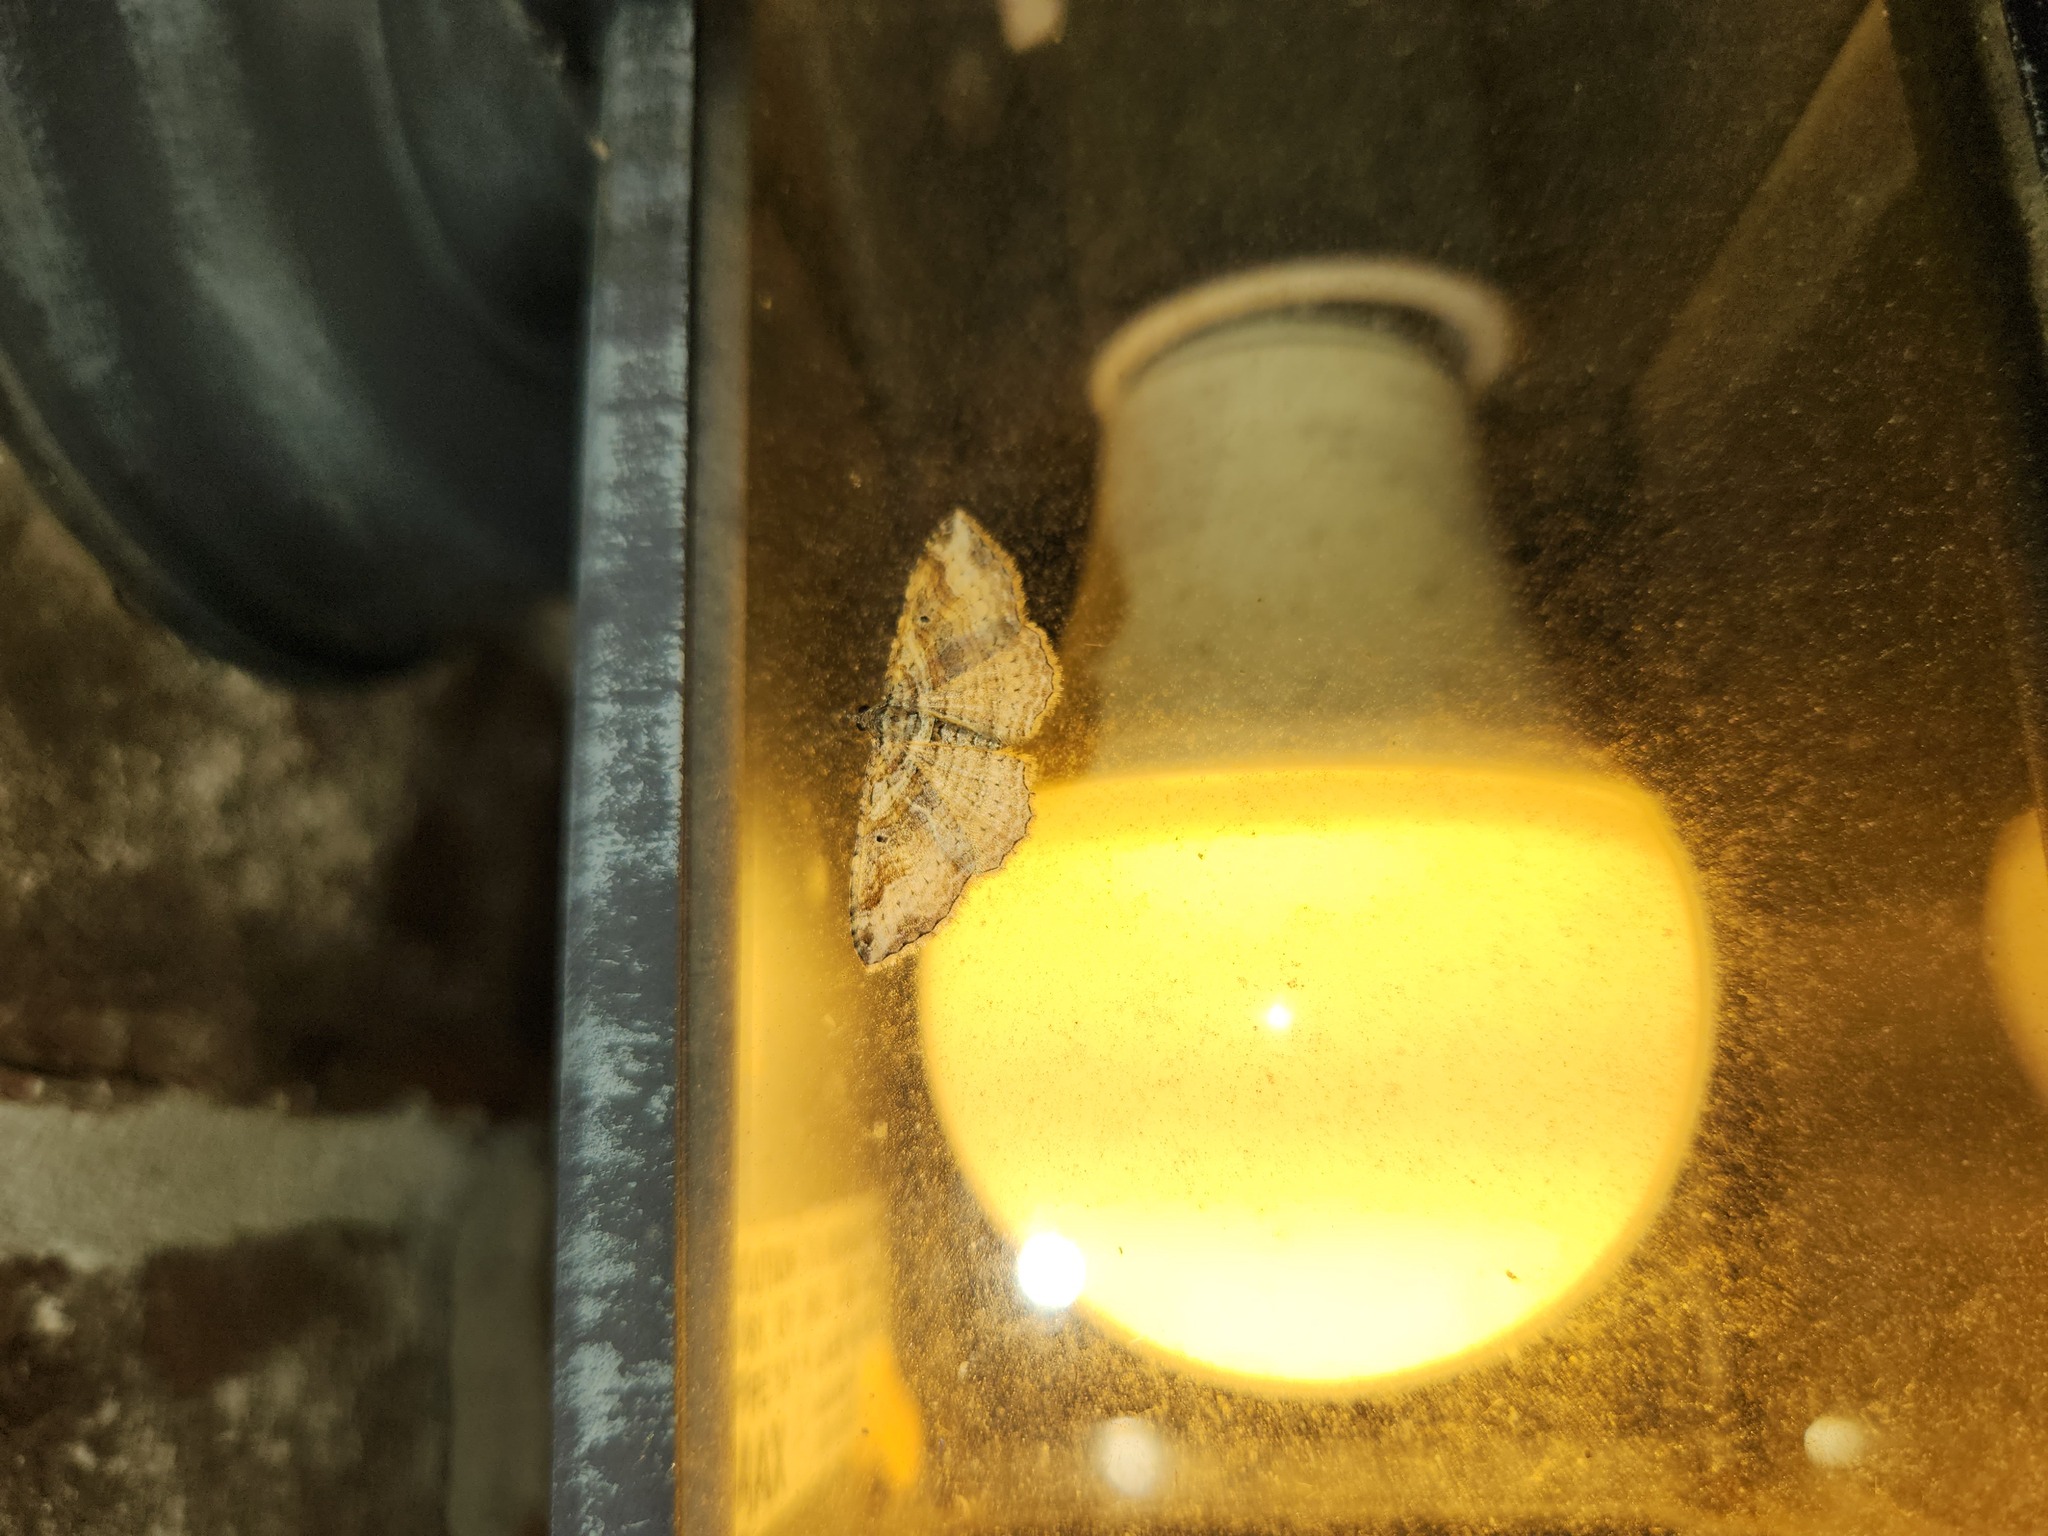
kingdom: Animalia
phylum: Arthropoda
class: Insecta
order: Lepidoptera
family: Geometridae
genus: Costaconvexa
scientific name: Costaconvexa centrostrigaria
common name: Bent-line carpet
